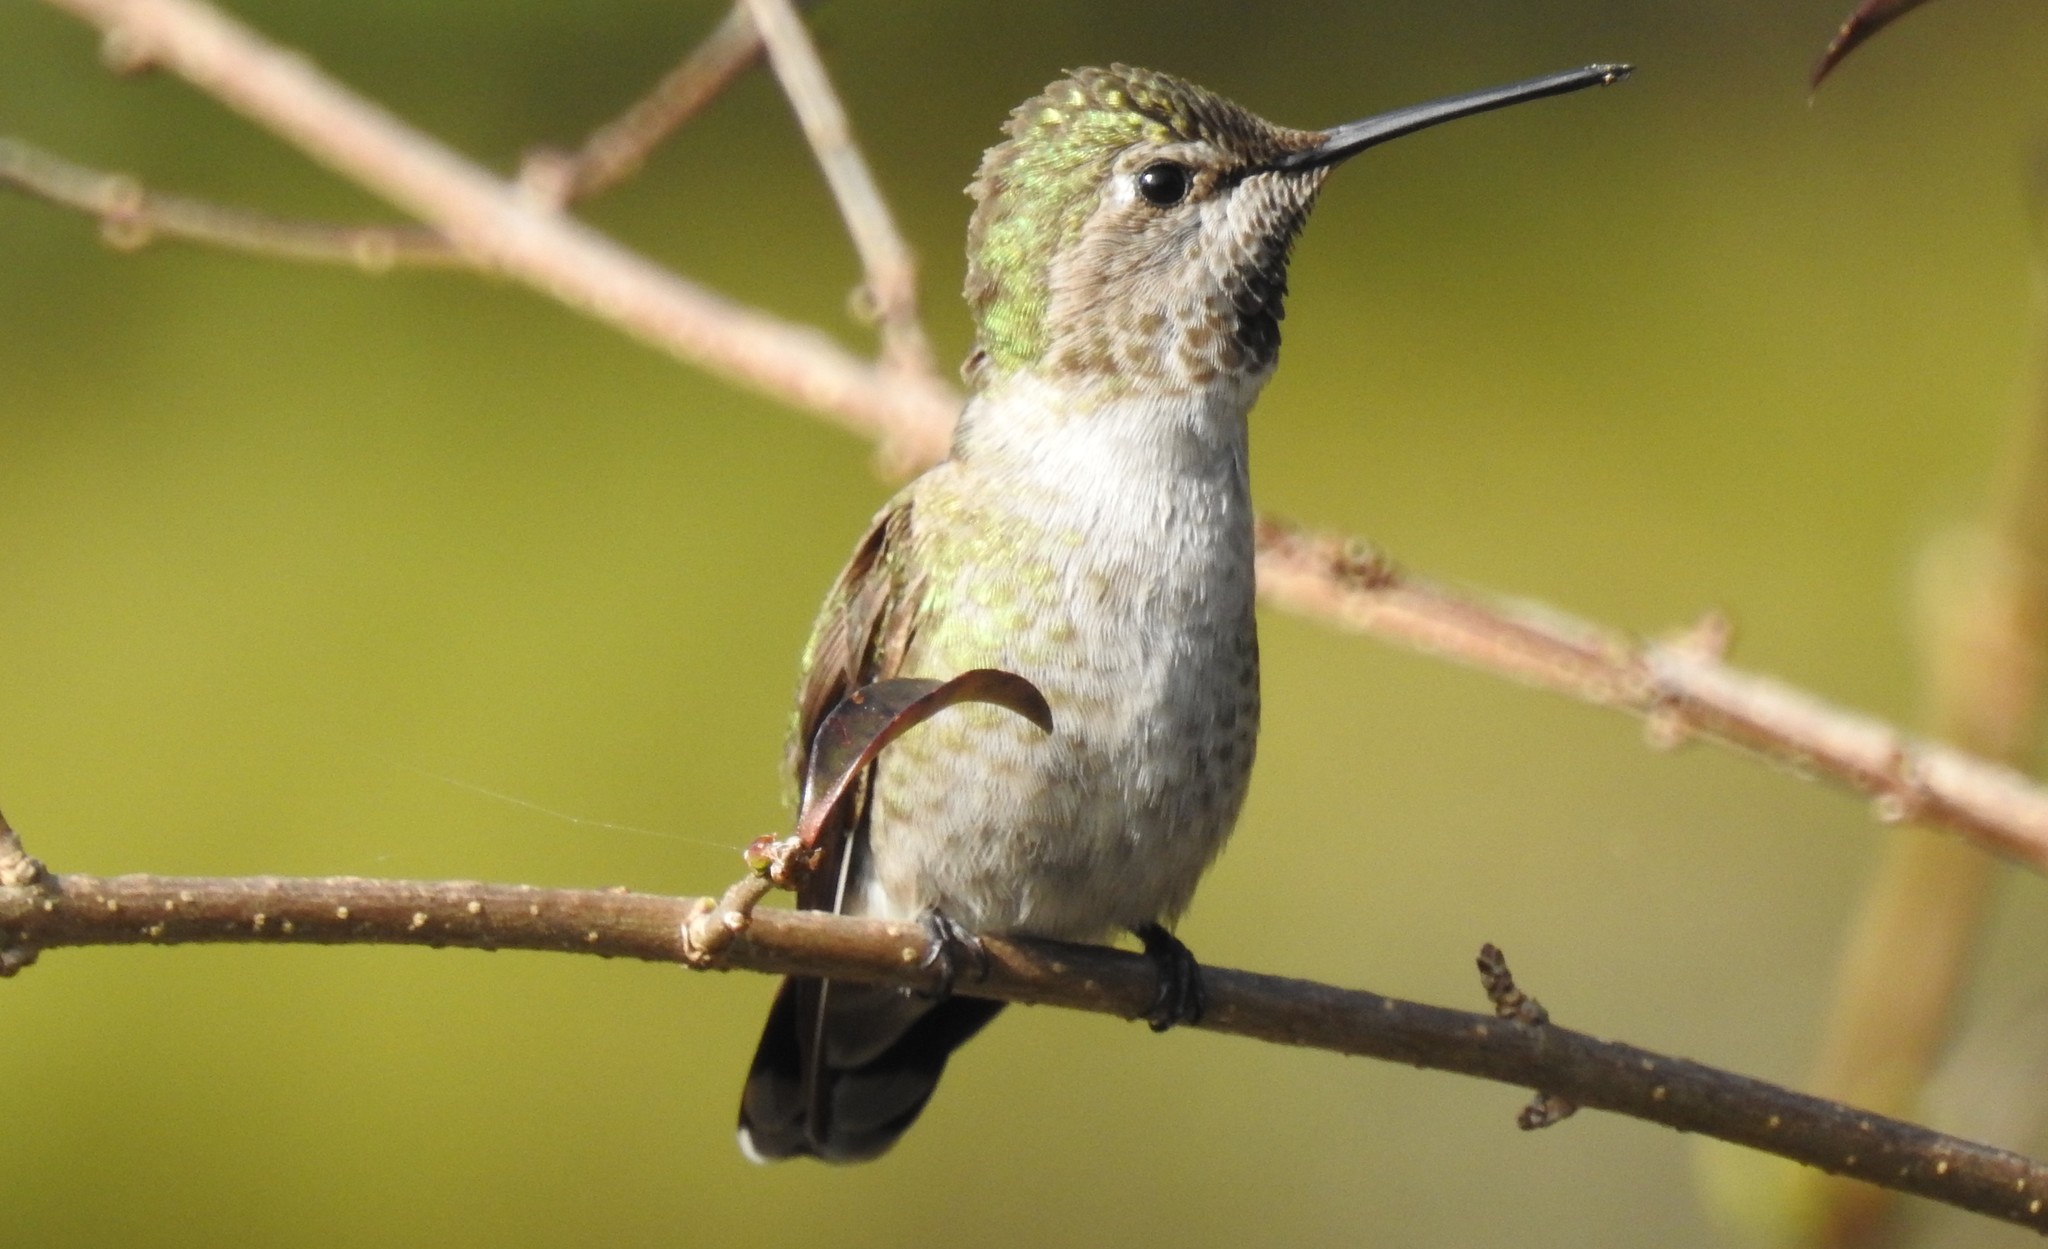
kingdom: Animalia
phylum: Chordata
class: Aves
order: Apodiformes
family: Trochilidae
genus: Calypte
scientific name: Calypte anna
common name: Anna's hummingbird
